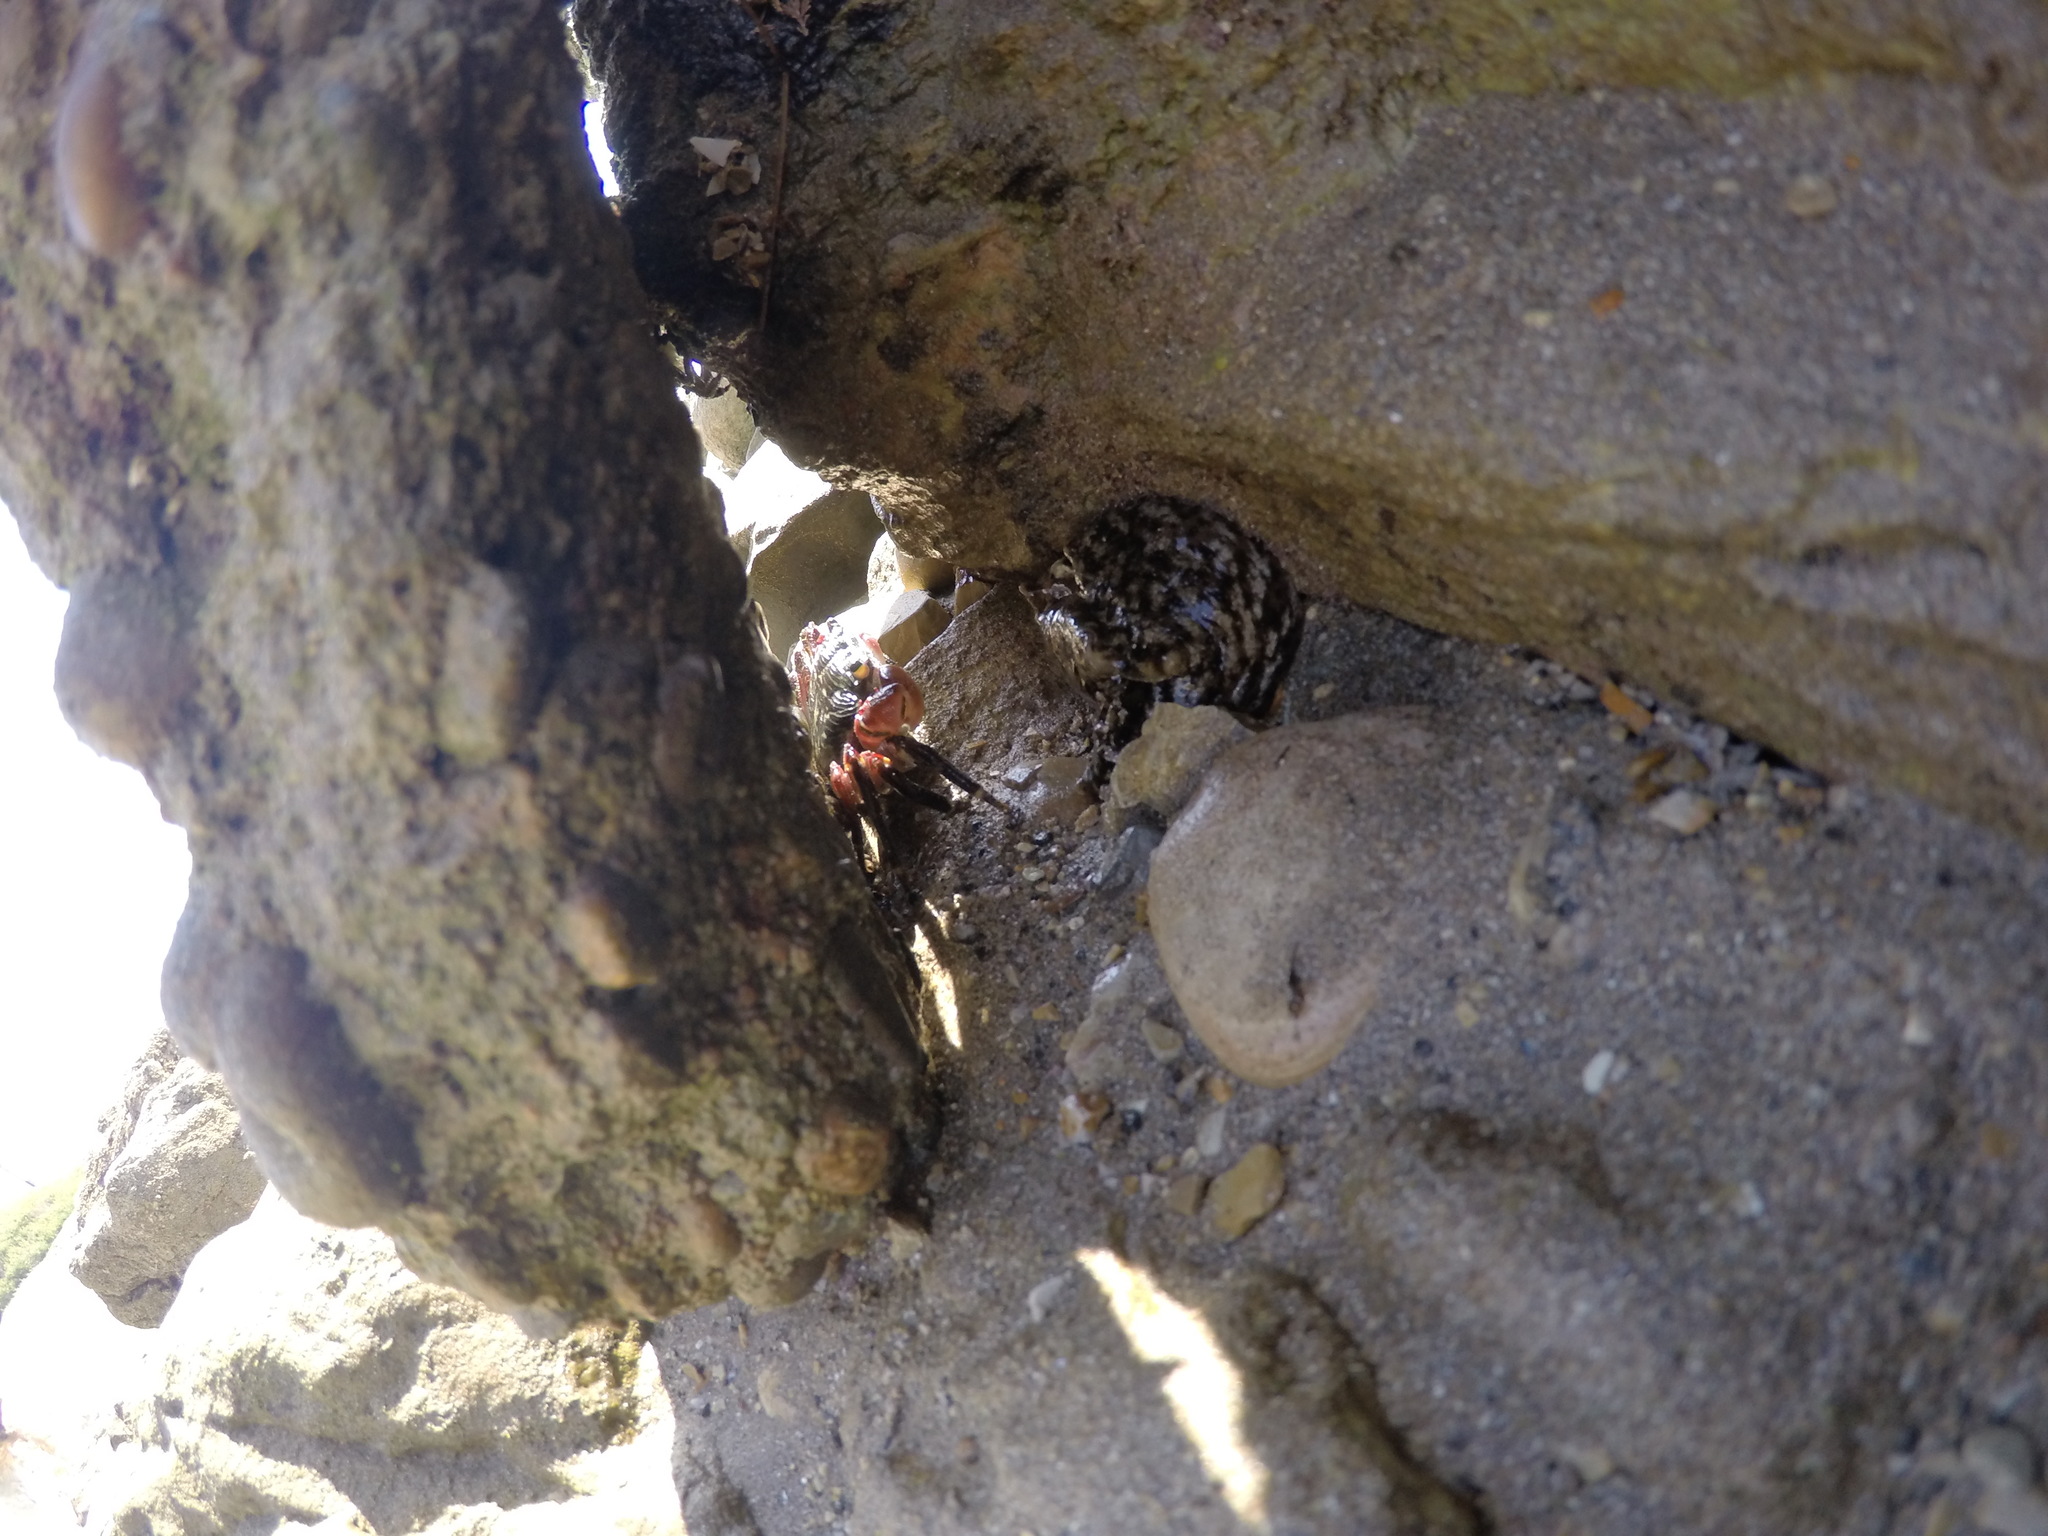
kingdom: Animalia
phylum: Arthropoda
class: Malacostraca
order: Decapoda
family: Grapsidae
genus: Pachygrapsus
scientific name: Pachygrapsus crassipes
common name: Striped shore crab
